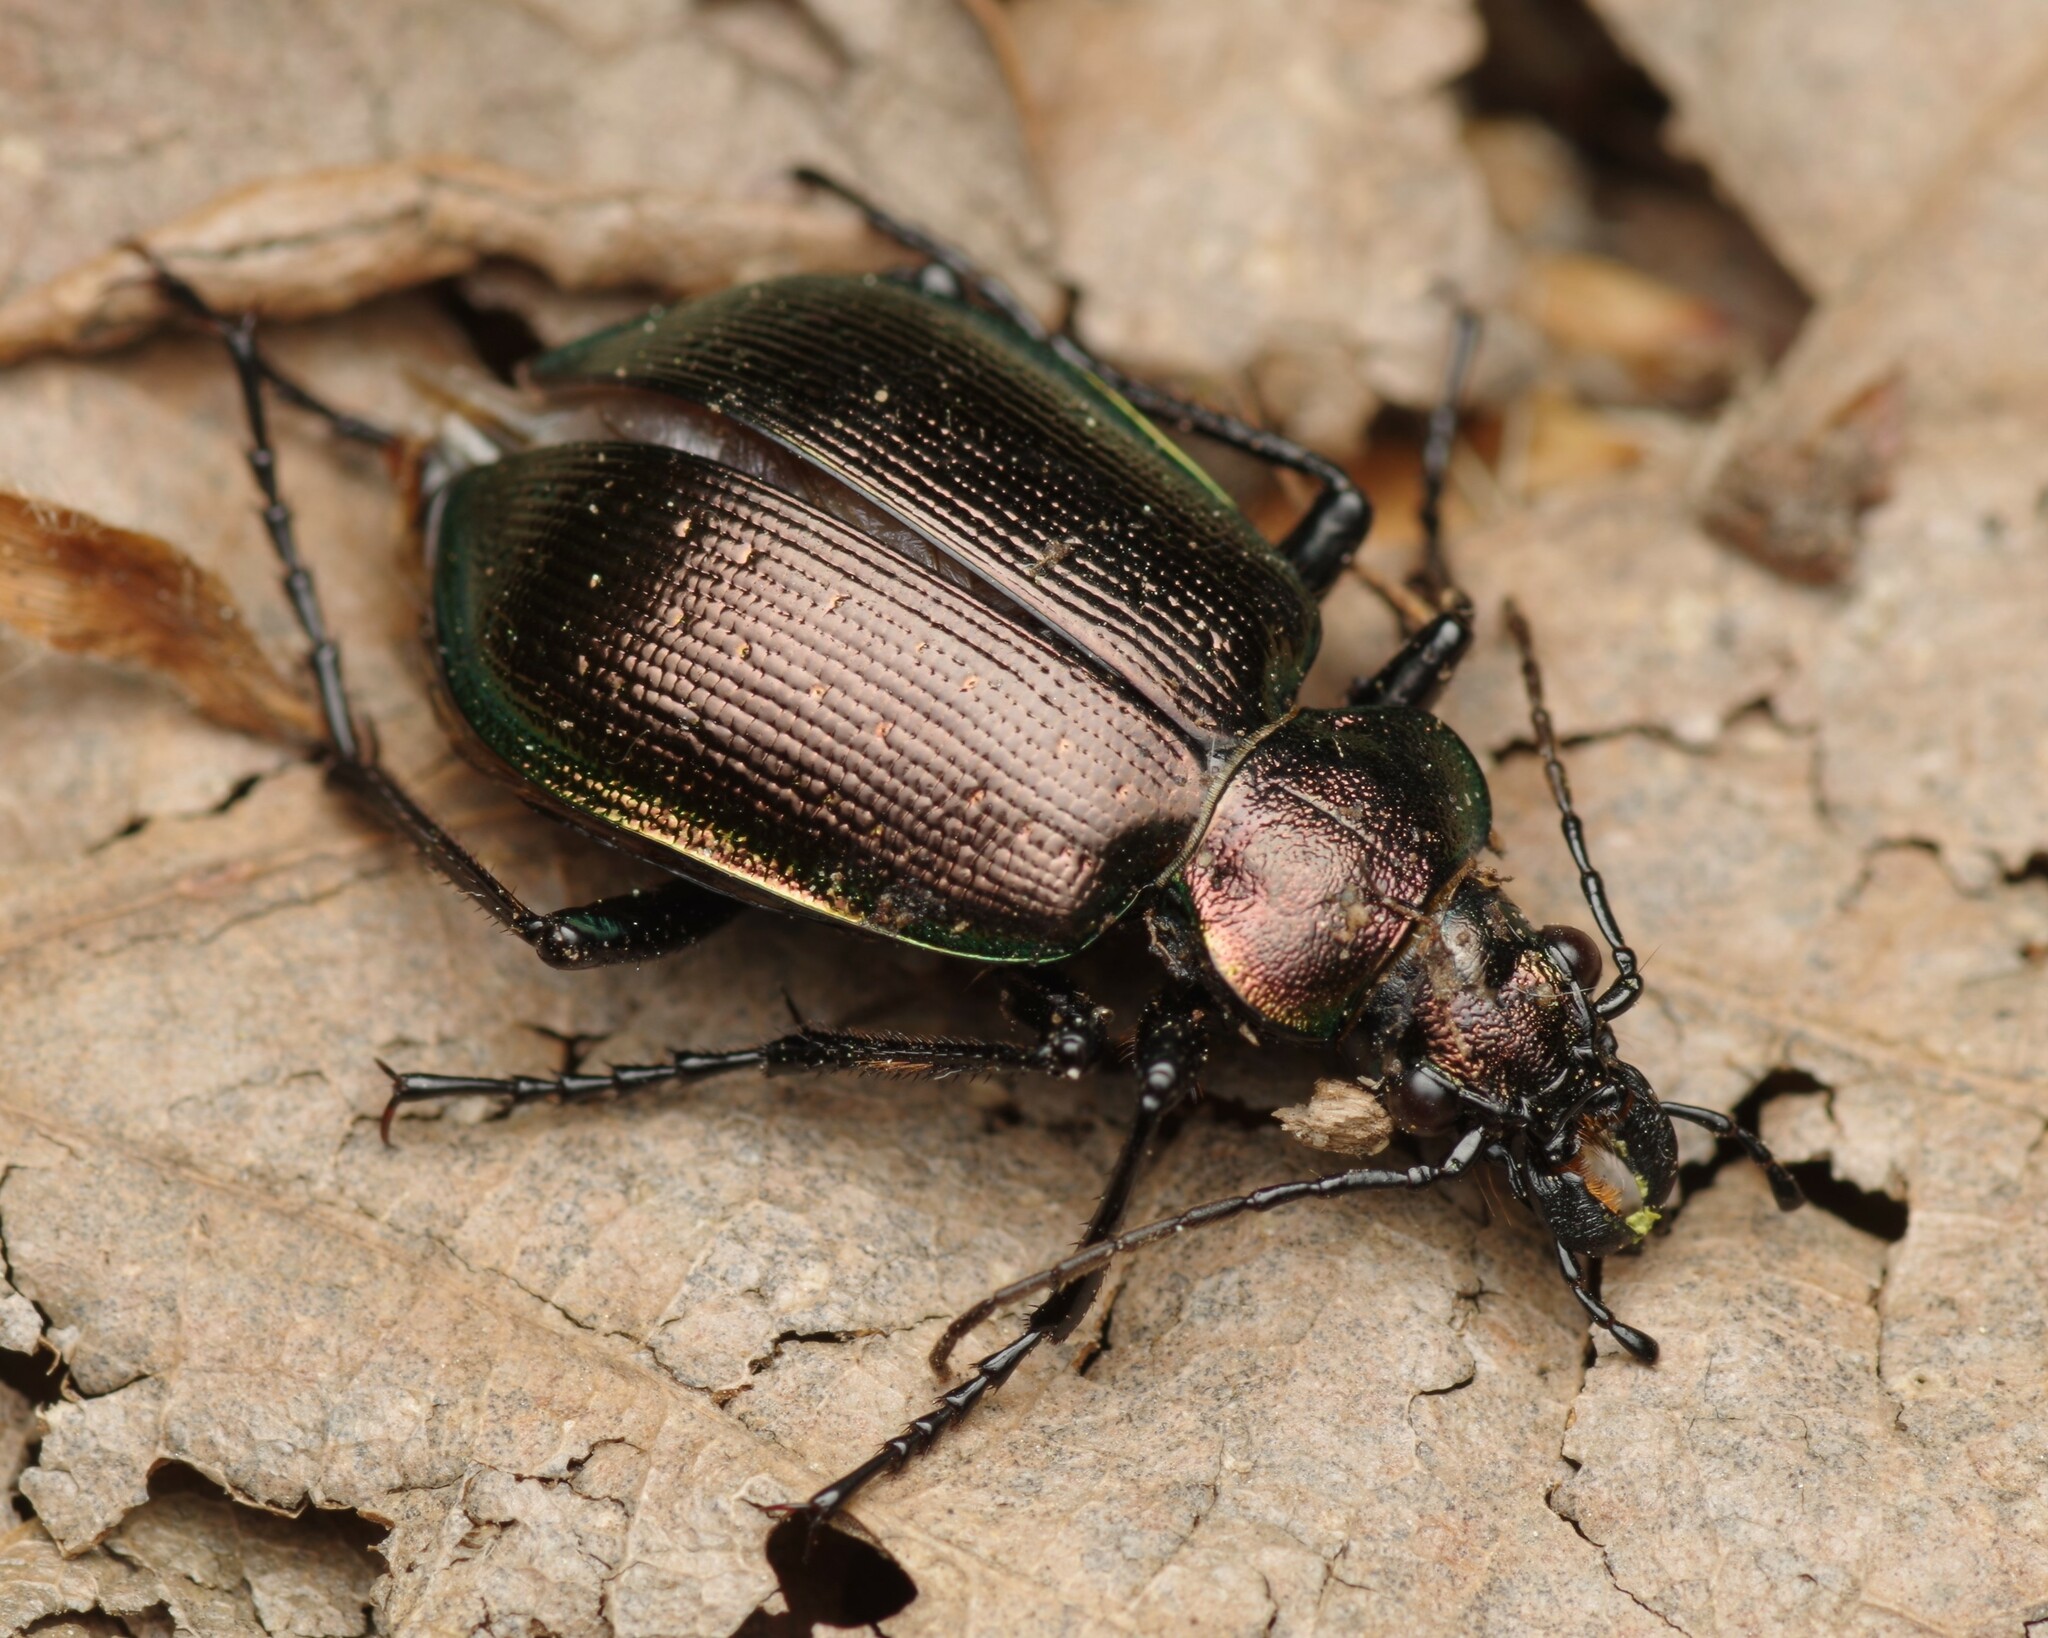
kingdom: Animalia
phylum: Arthropoda
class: Insecta
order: Coleoptera
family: Carabidae
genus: Calosoma
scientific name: Calosoma inquisitor
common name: Caterpillar-hunter
